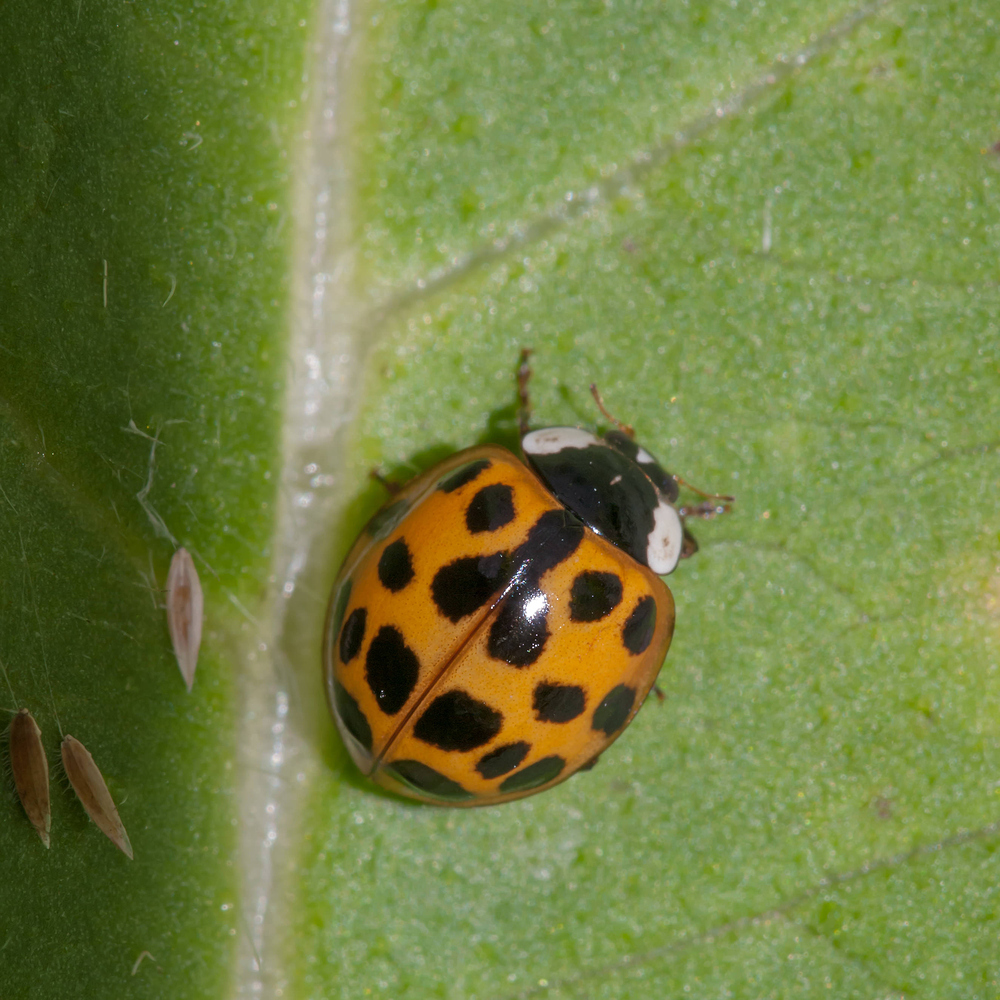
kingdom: Animalia
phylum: Arthropoda
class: Insecta
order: Coleoptera
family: Coccinellidae
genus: Harmonia
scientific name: Harmonia axyridis
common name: Harlequin ladybird
